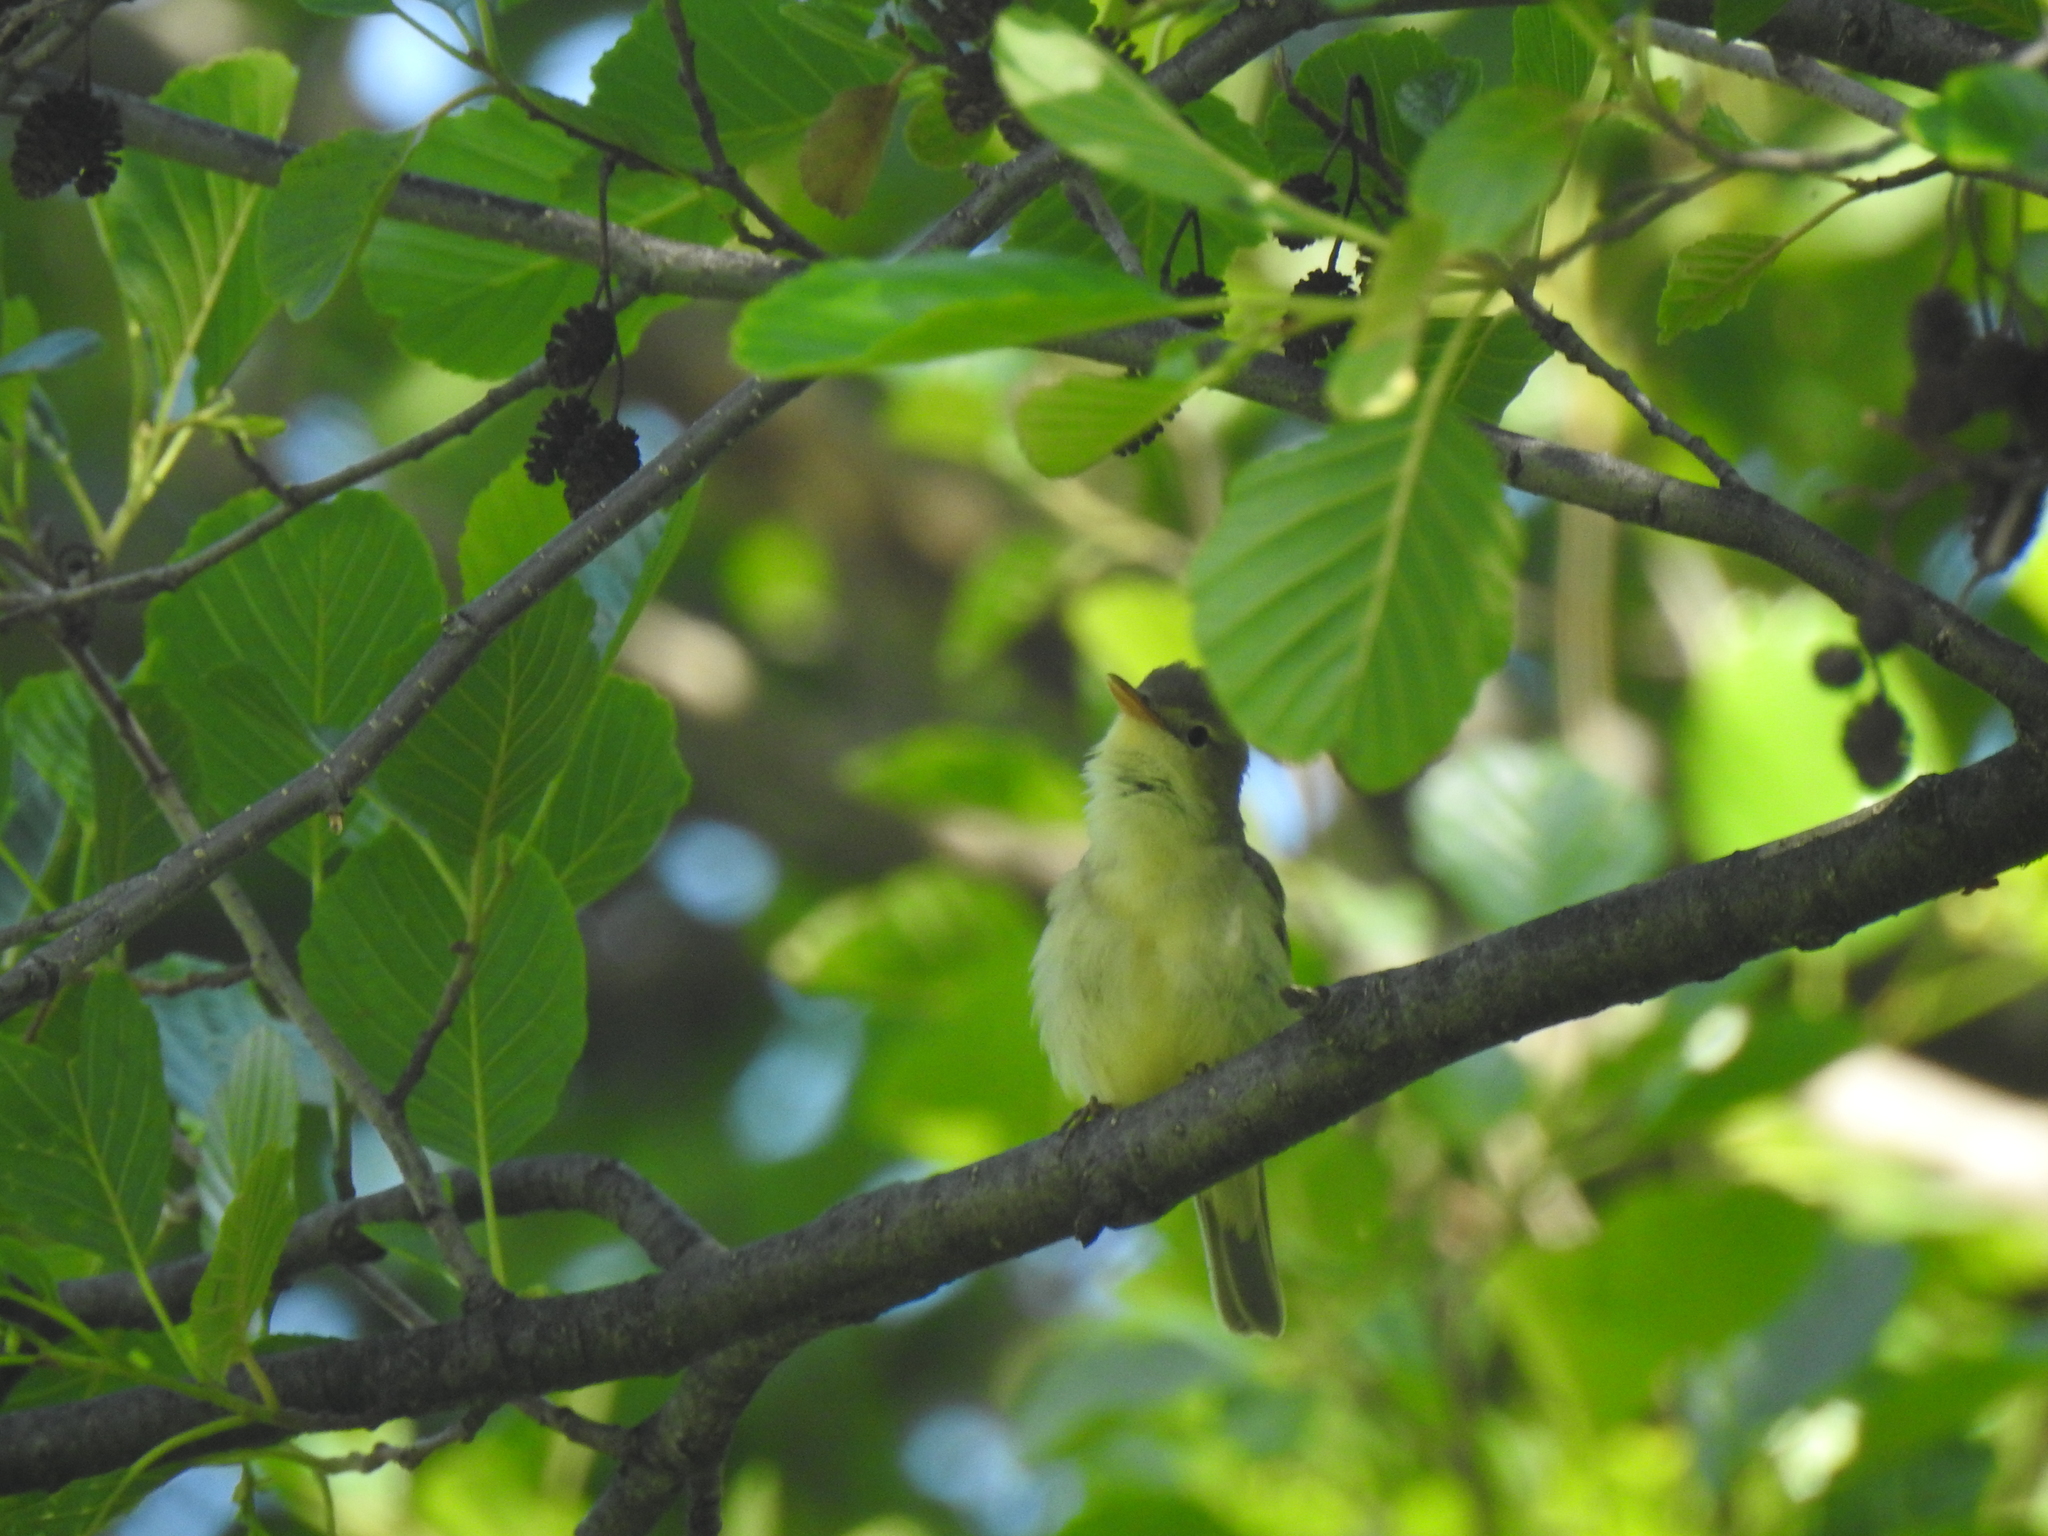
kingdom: Animalia
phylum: Chordata
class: Aves
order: Passeriformes
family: Acrocephalidae
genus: Hippolais
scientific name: Hippolais polyglotta
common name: Melodious warbler
